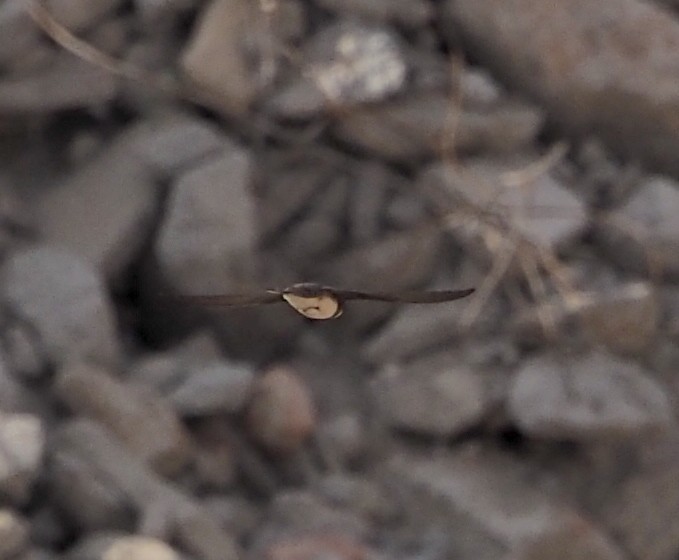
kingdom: Animalia
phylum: Chordata
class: Aves
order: Passeriformes
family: Hirundinidae
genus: Riparia
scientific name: Riparia riparia
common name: Sand martin
